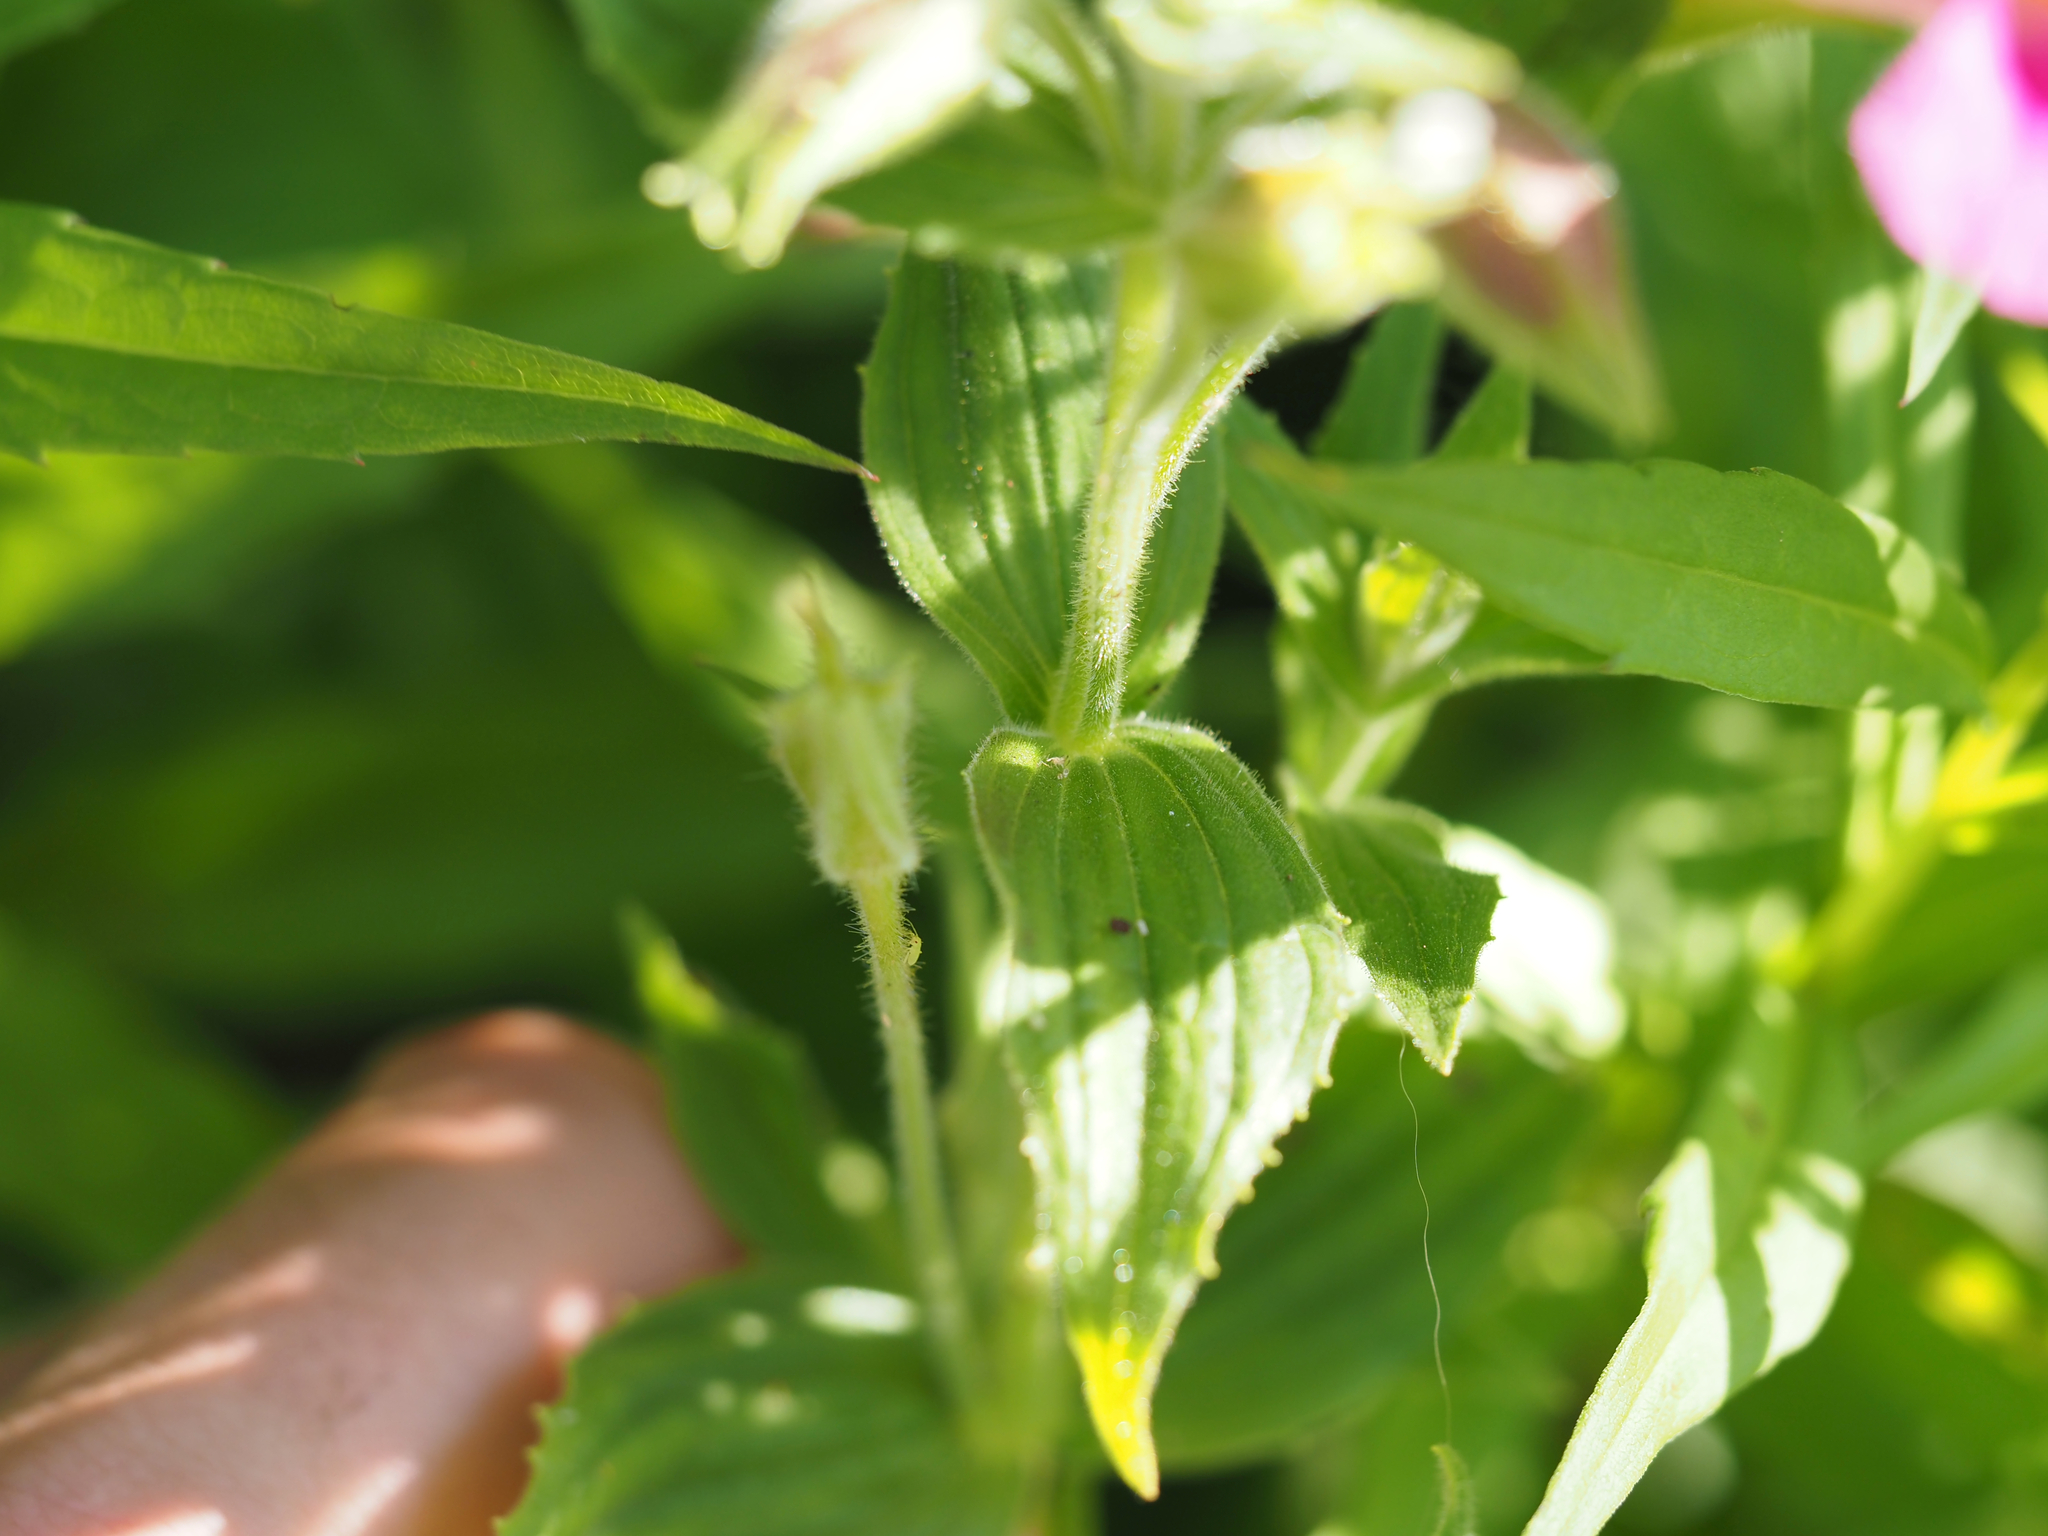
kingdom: Plantae
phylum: Tracheophyta
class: Magnoliopsida
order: Lamiales
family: Phrymaceae
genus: Erythranthe
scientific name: Erythranthe lewisii
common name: Lewis's monkey-flower
